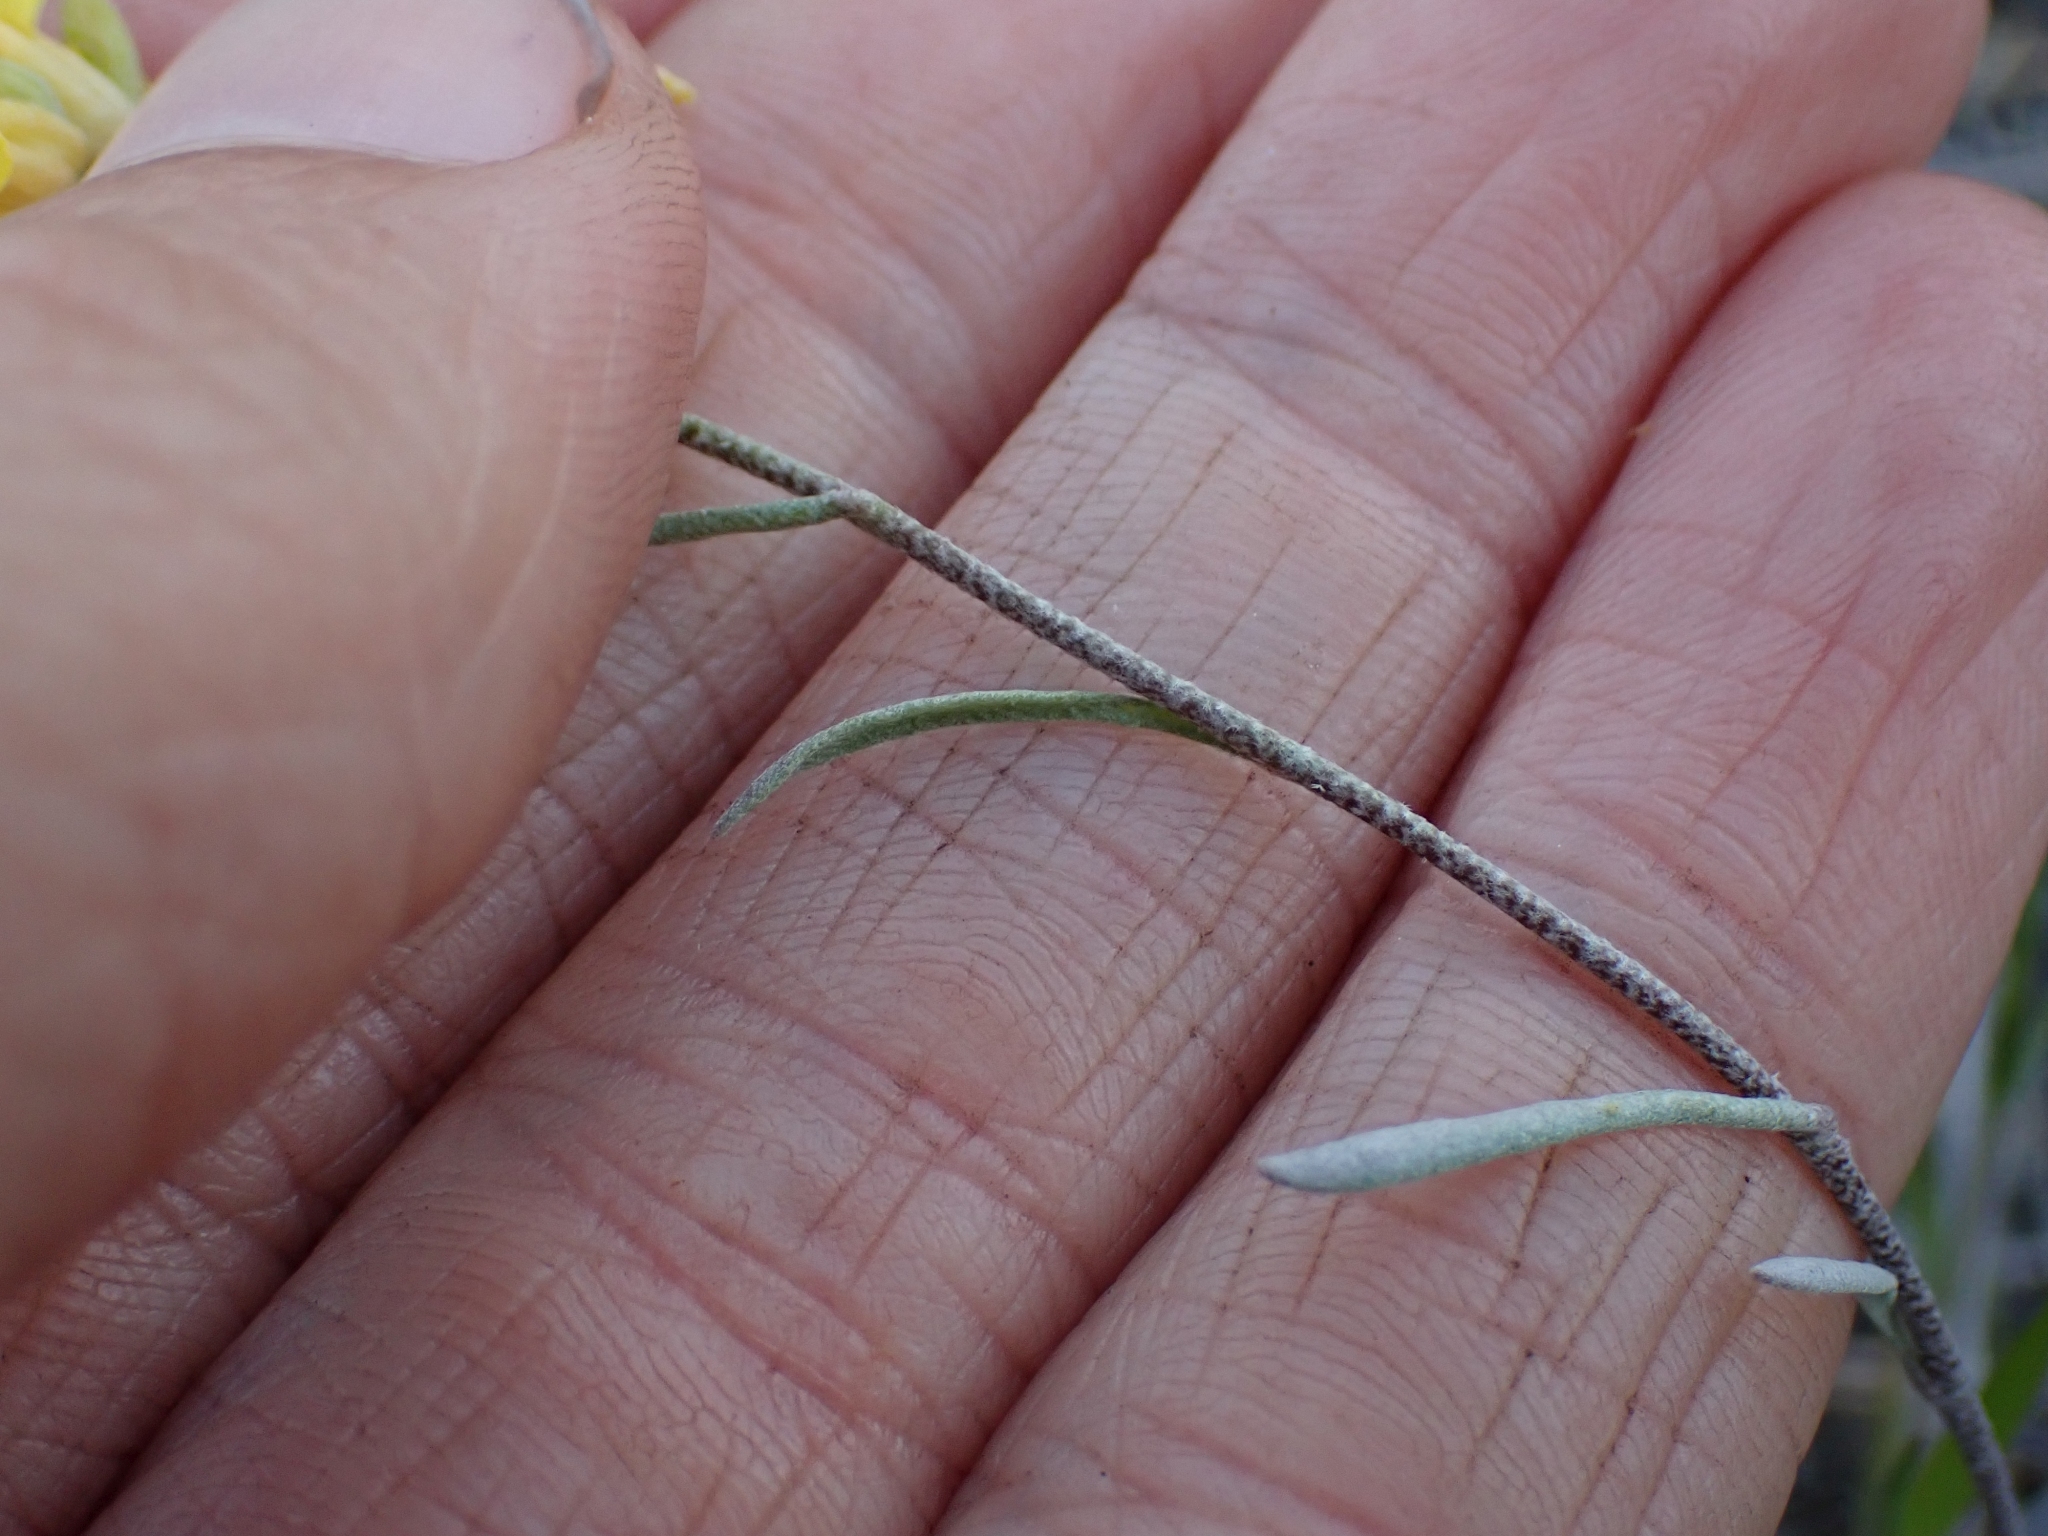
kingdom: Plantae
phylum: Tracheophyta
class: Magnoliopsida
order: Brassicales
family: Brassicaceae
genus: Physaria
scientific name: Physaria douglasii
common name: Douglas's bladderpod
